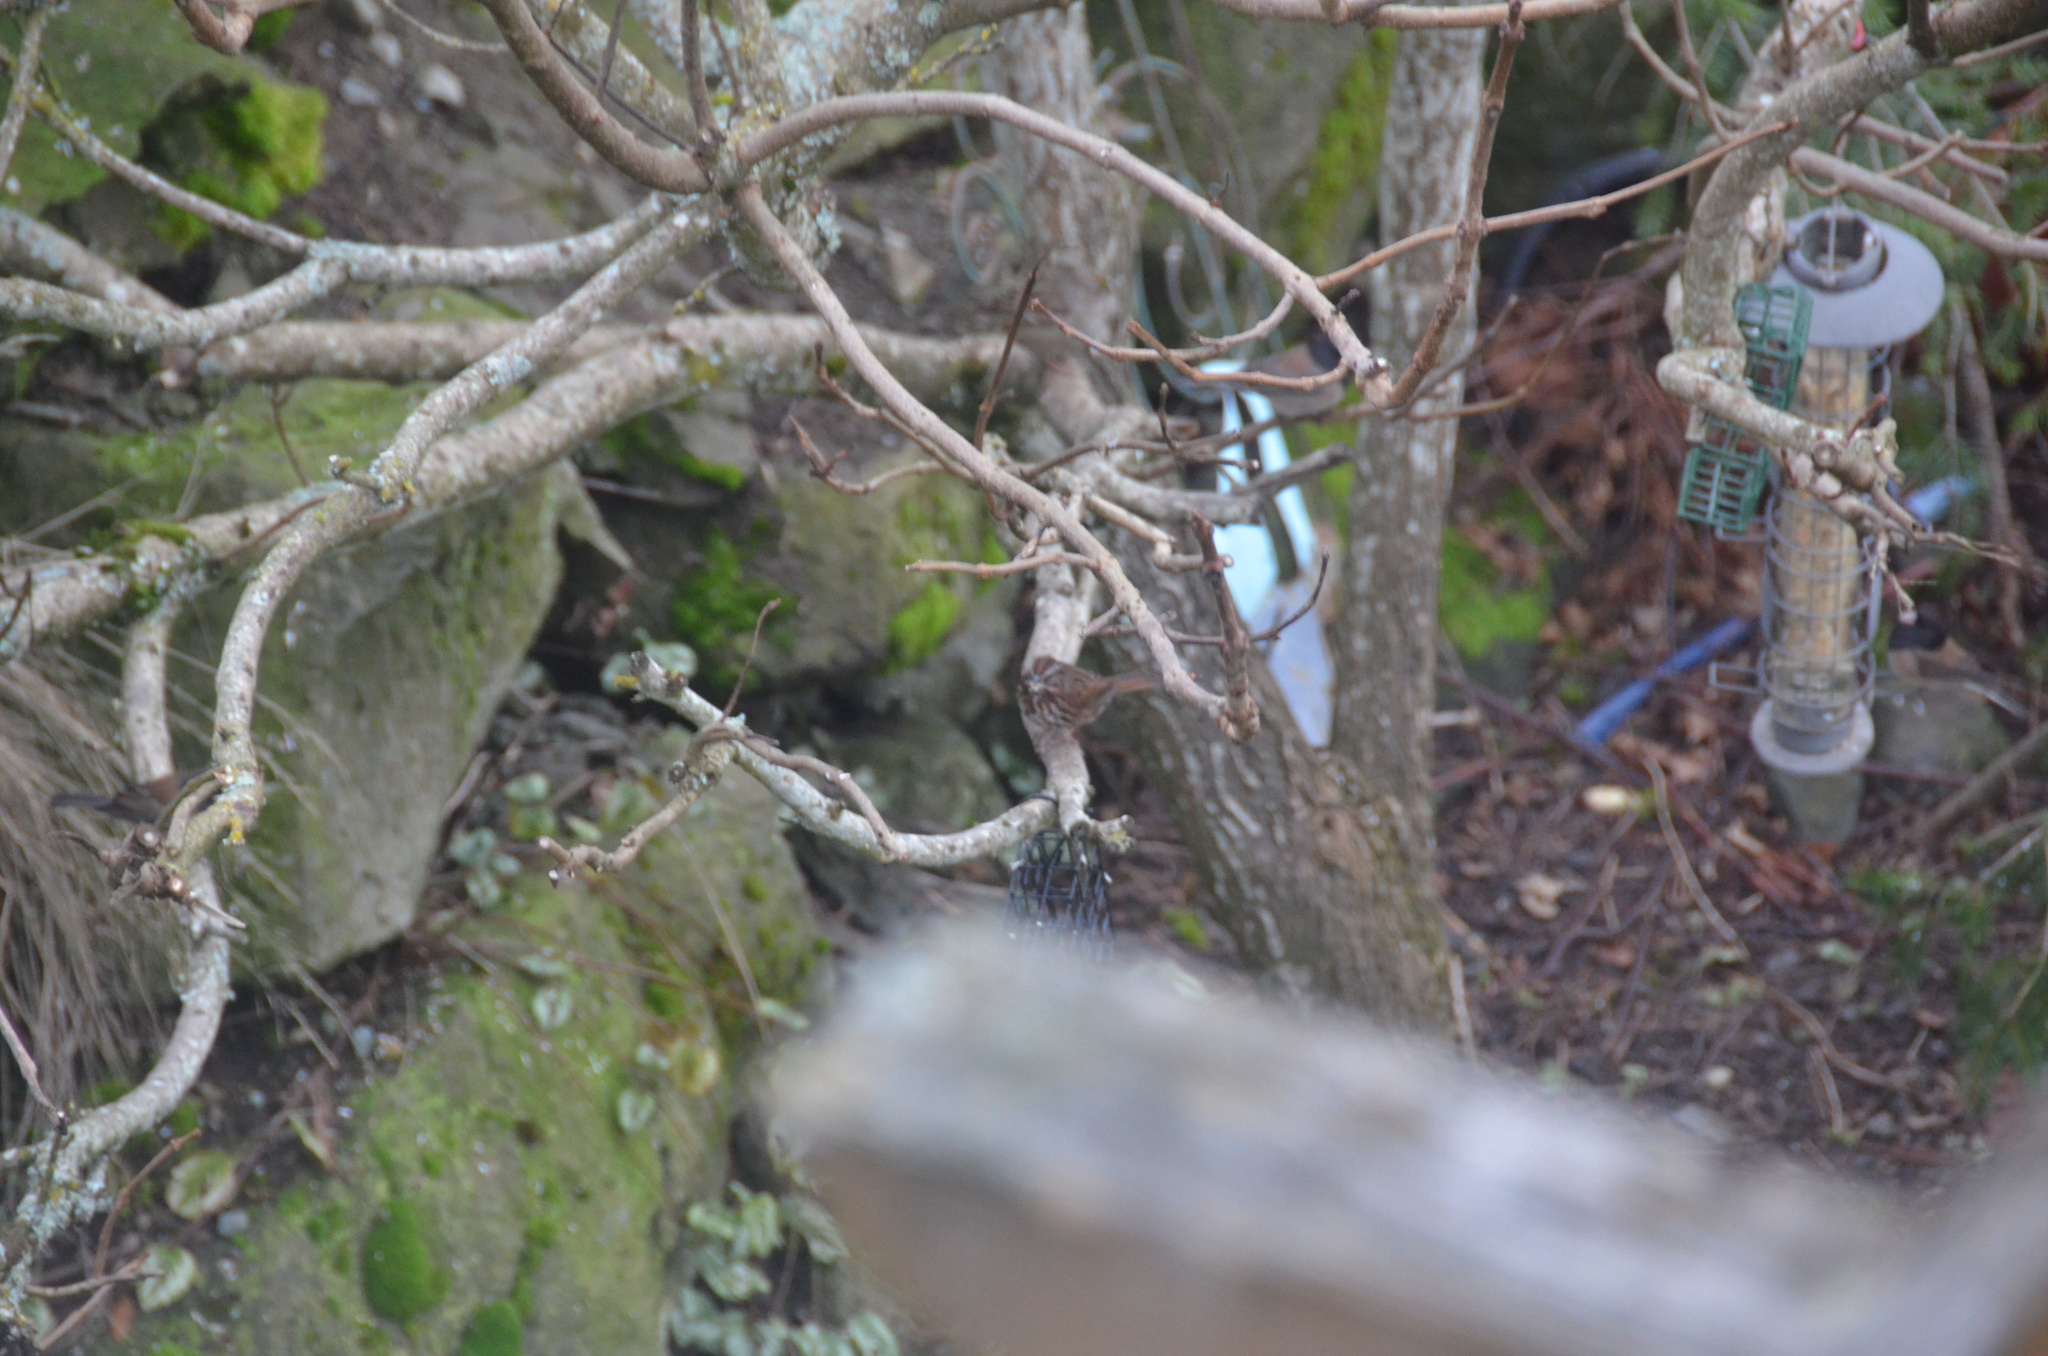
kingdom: Animalia
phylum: Chordata
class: Aves
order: Passeriformes
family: Passerellidae
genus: Melospiza
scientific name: Melospiza melodia
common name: Song sparrow
